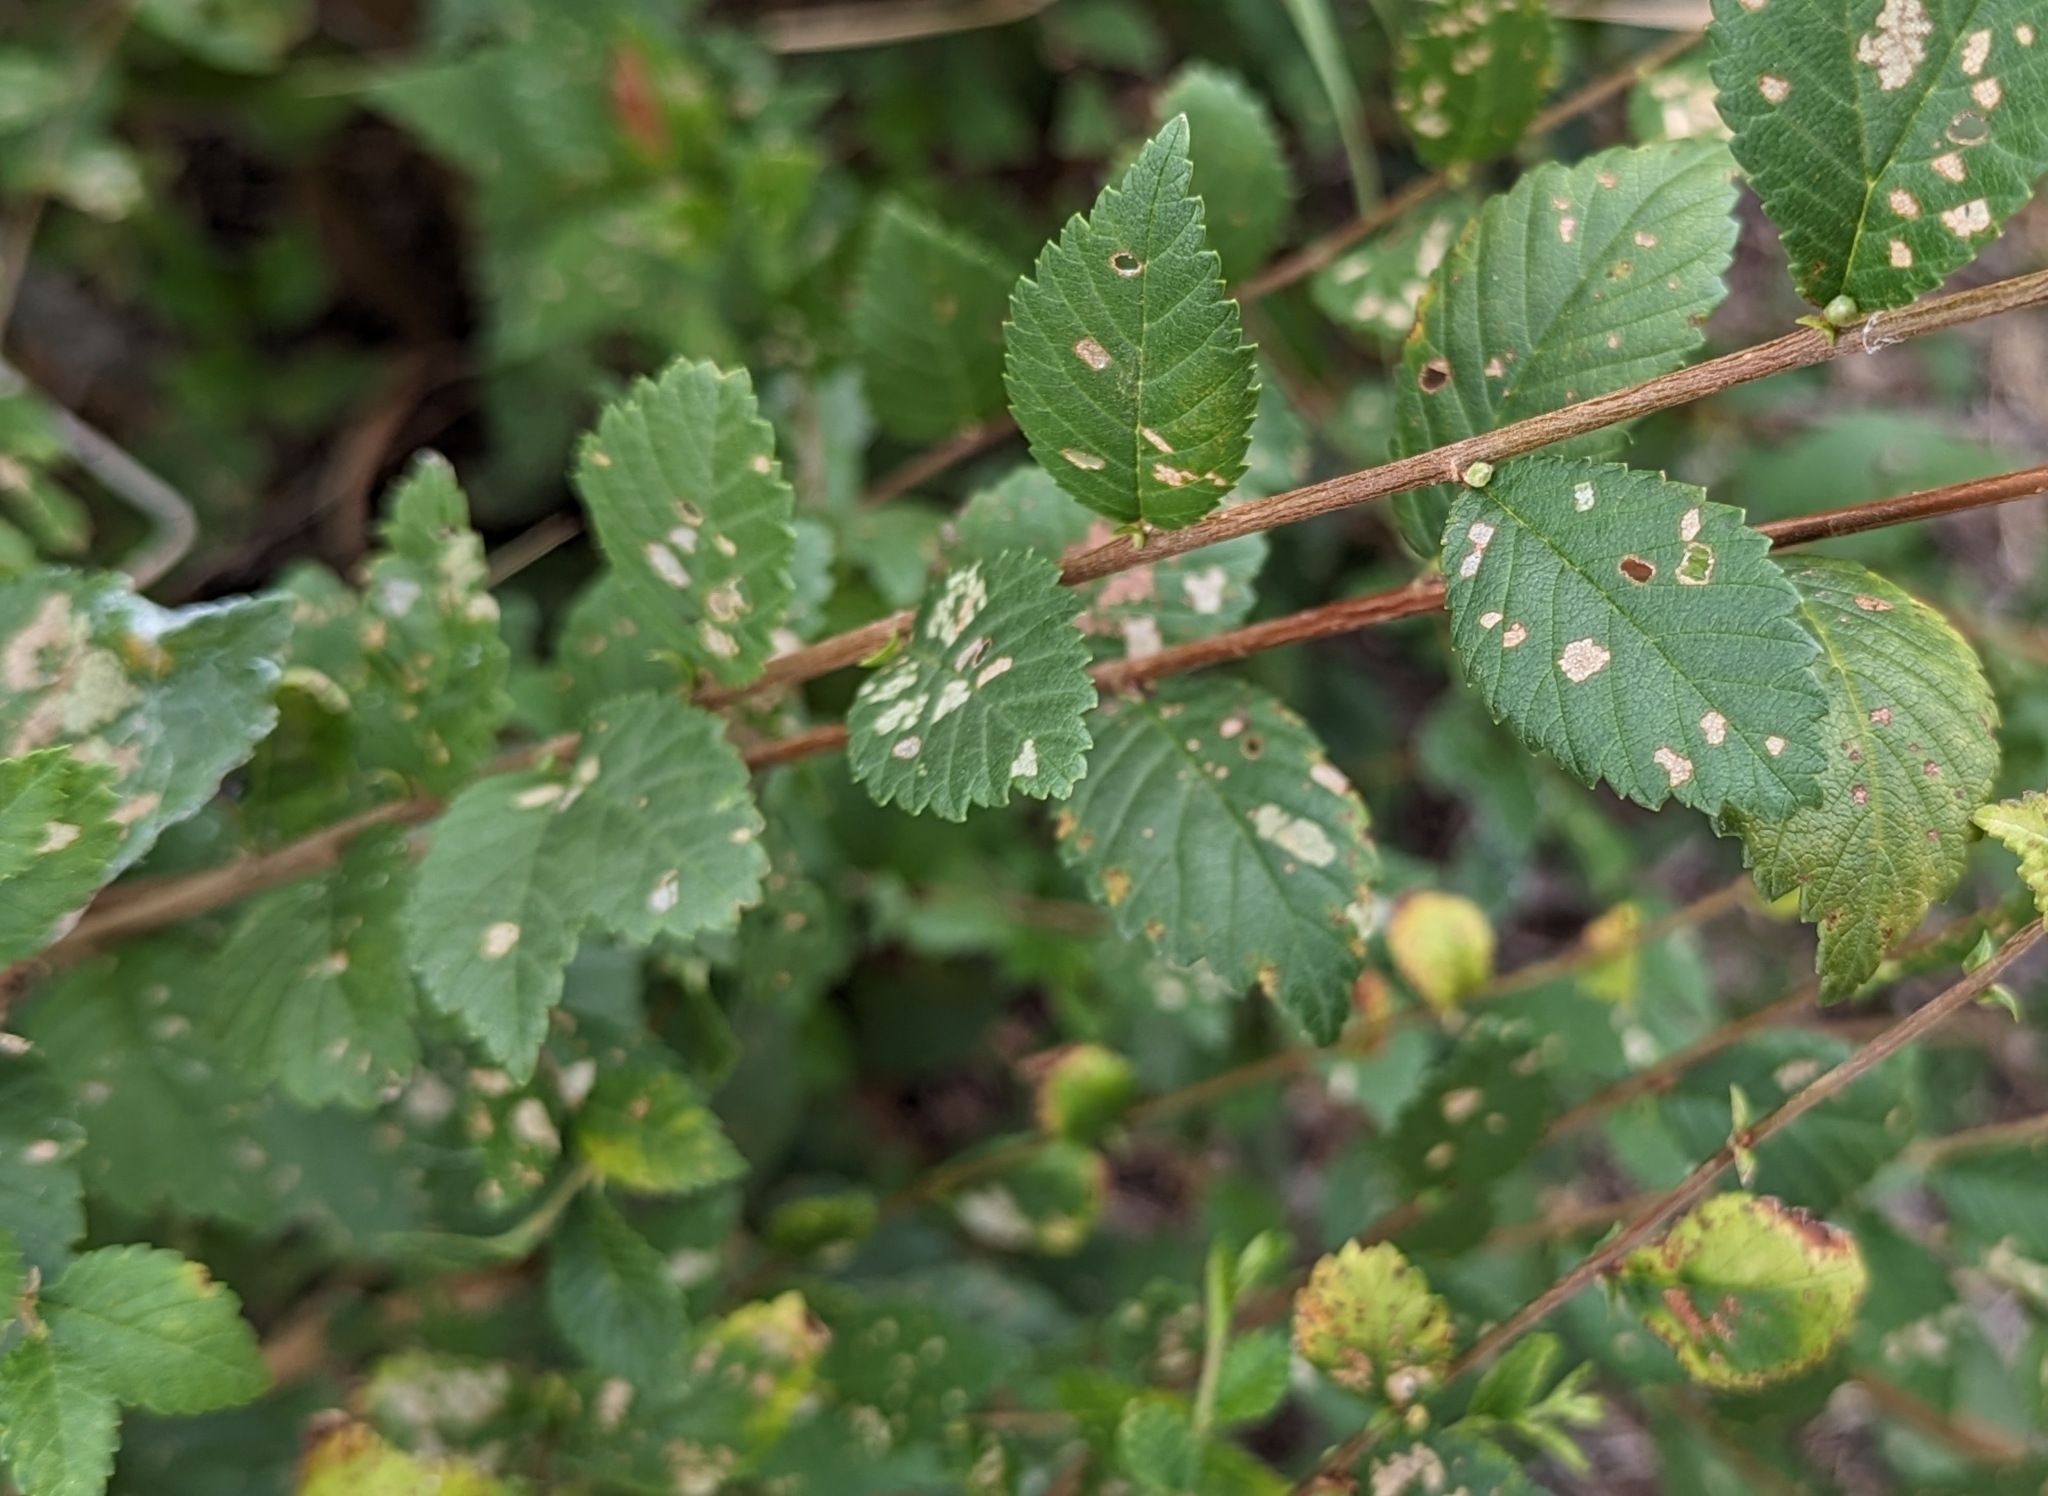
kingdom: Plantae
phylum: Tracheophyta
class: Magnoliopsida
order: Rosales
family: Ulmaceae
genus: Ulmus
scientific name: Ulmus pumila
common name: Siberian elm
